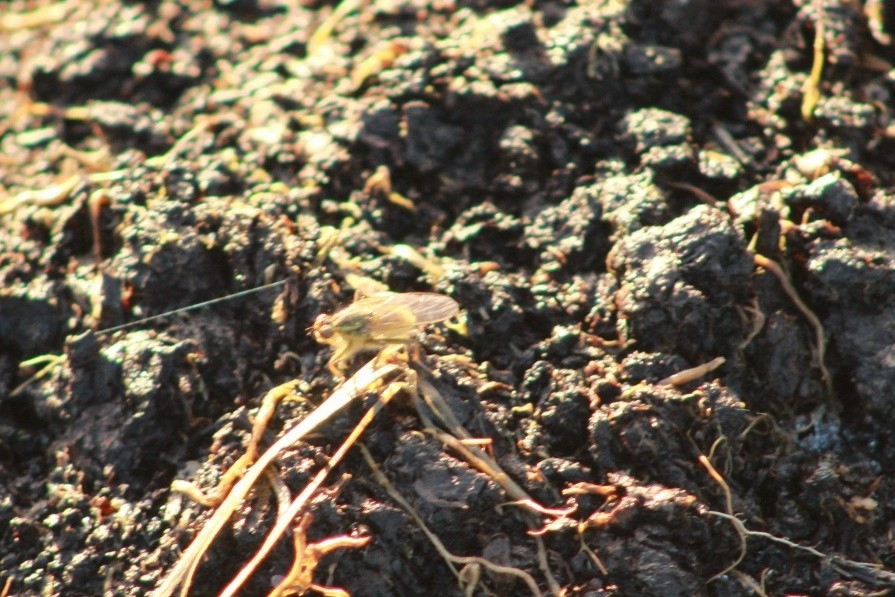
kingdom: Animalia
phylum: Arthropoda
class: Insecta
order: Diptera
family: Scathophagidae
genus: Scathophaga
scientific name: Scathophaga stercoraria
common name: Yellow dung fly
